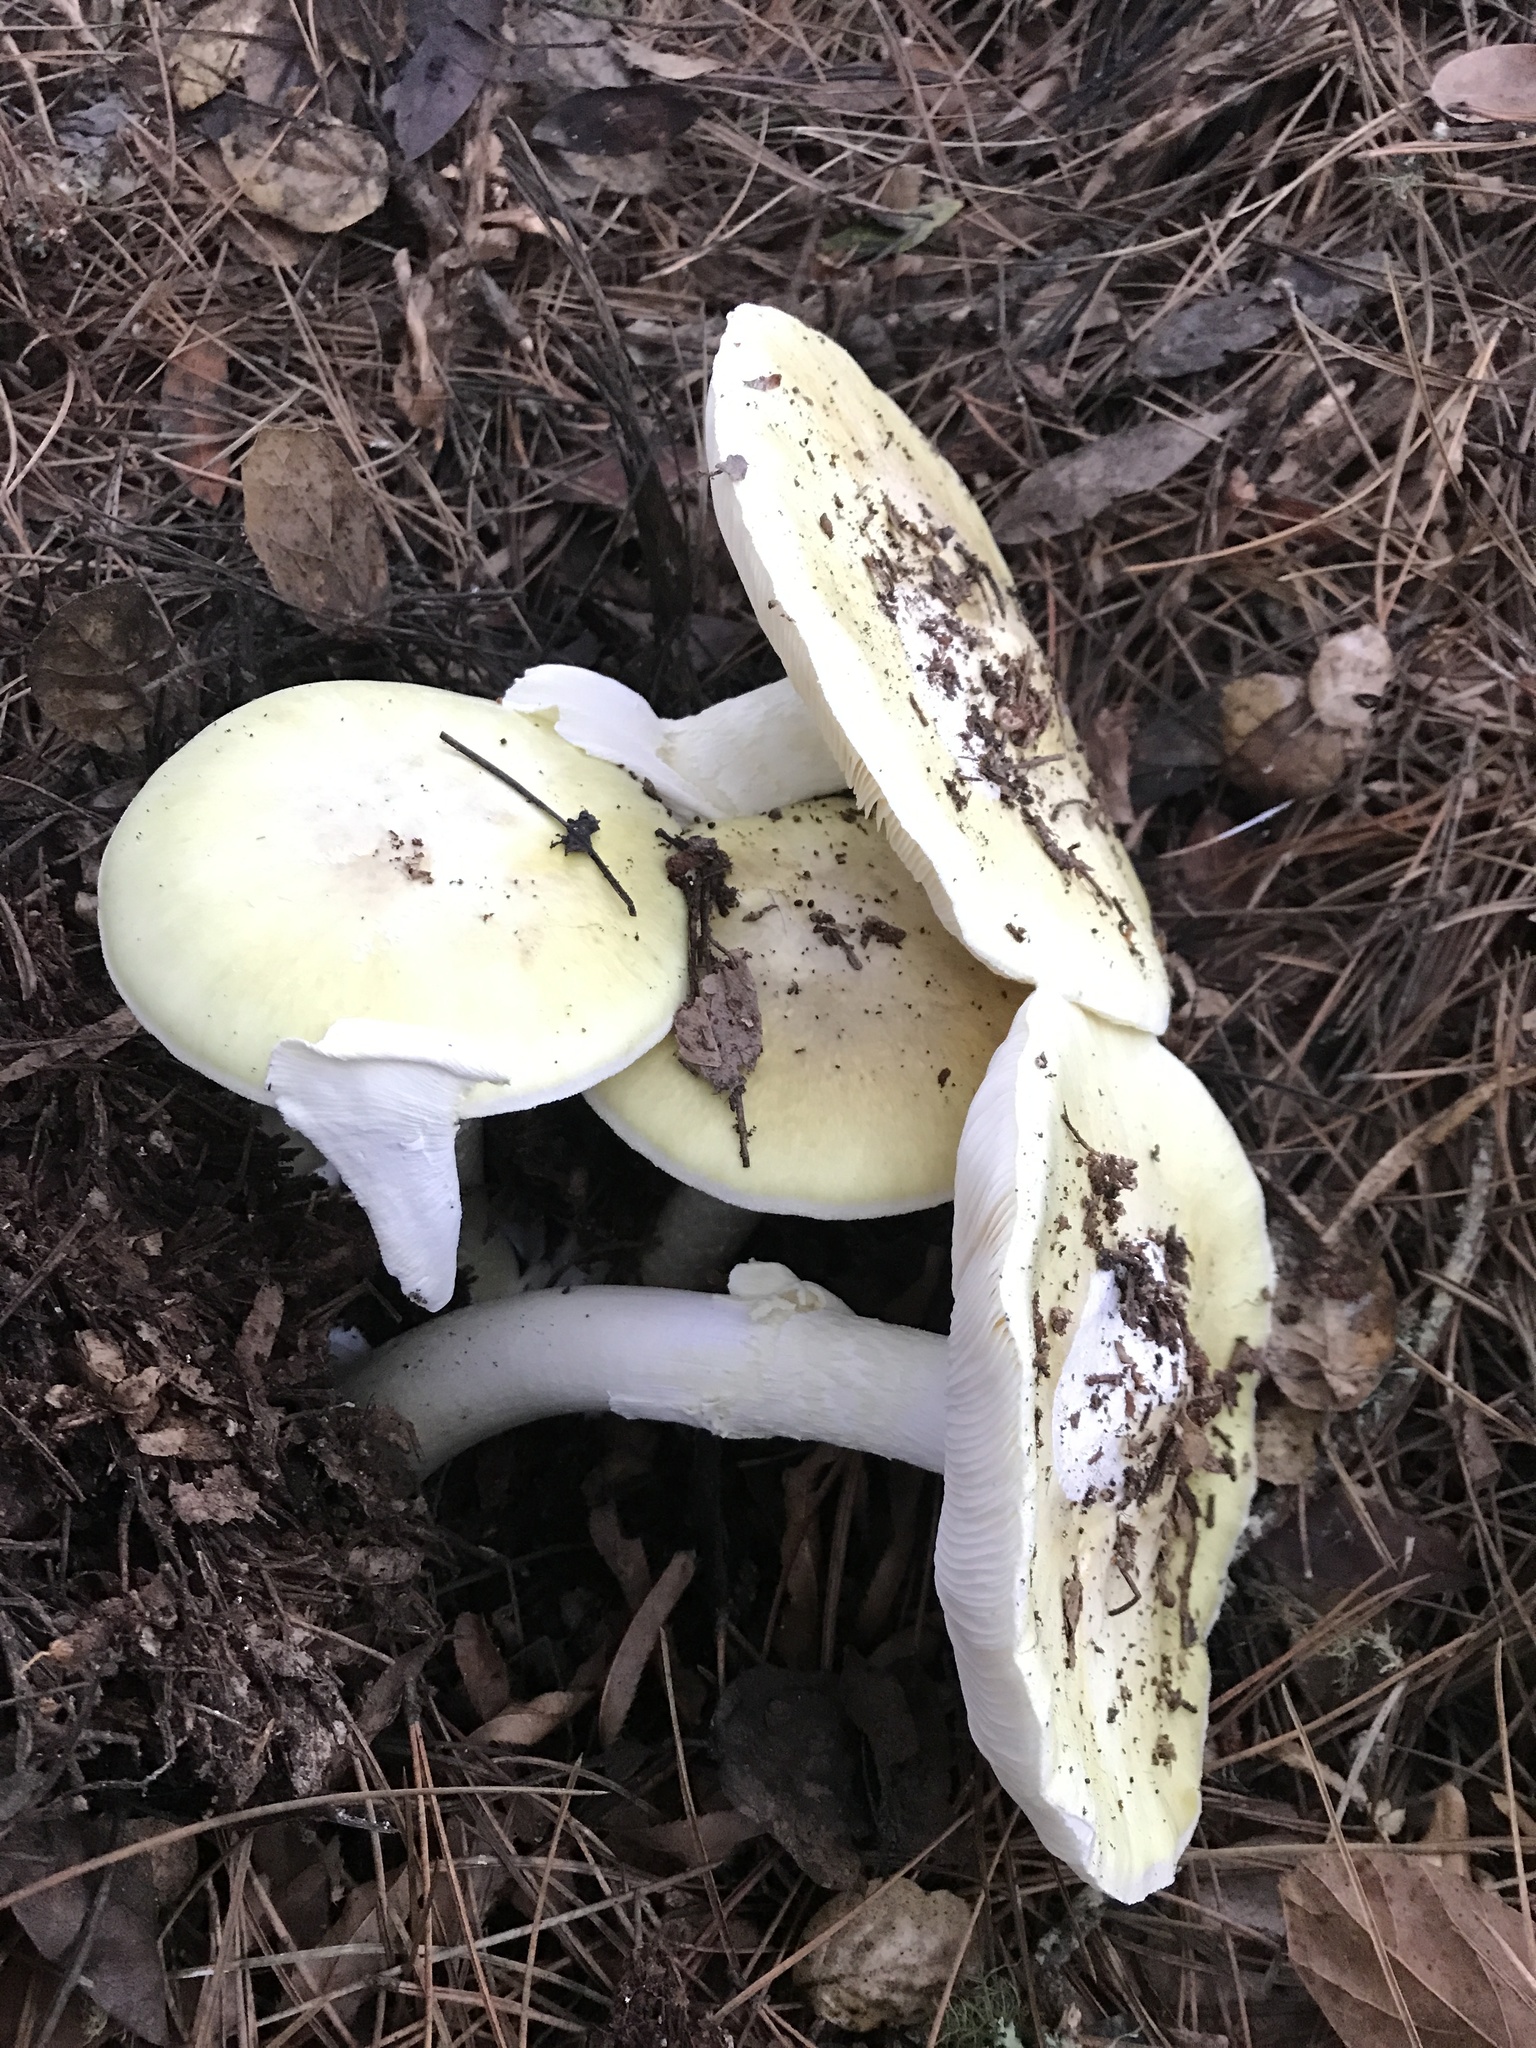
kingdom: Fungi
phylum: Basidiomycota
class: Agaricomycetes
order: Agaricales
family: Amanitaceae
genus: Amanita
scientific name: Amanita phalloides
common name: Death cap
